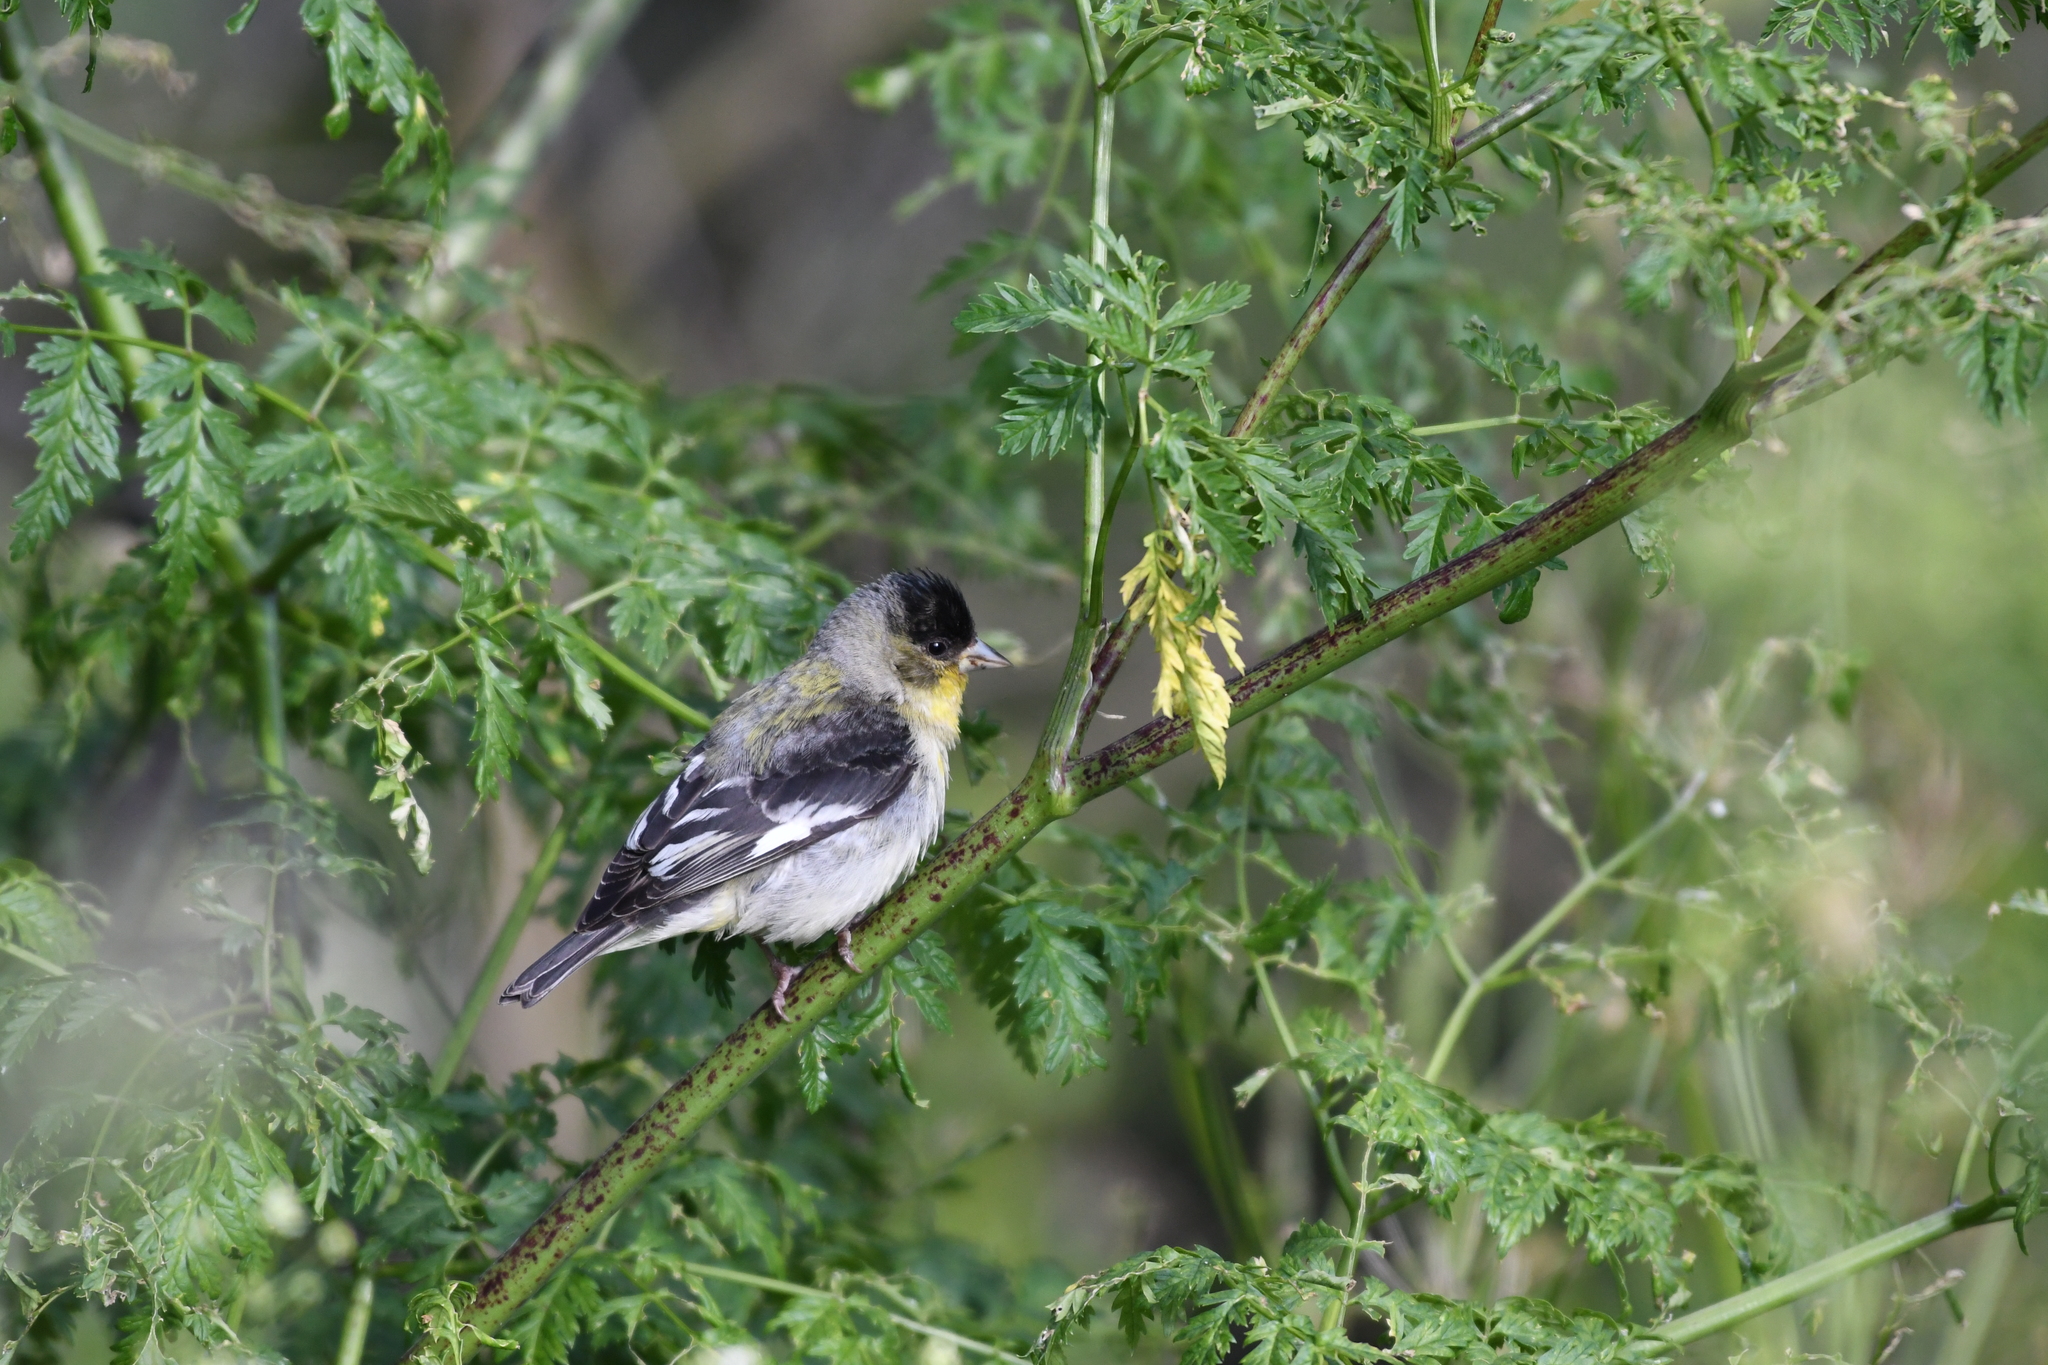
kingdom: Animalia
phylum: Chordata
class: Aves
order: Passeriformes
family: Fringillidae
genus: Spinus
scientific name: Spinus psaltria
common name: Lesser goldfinch
